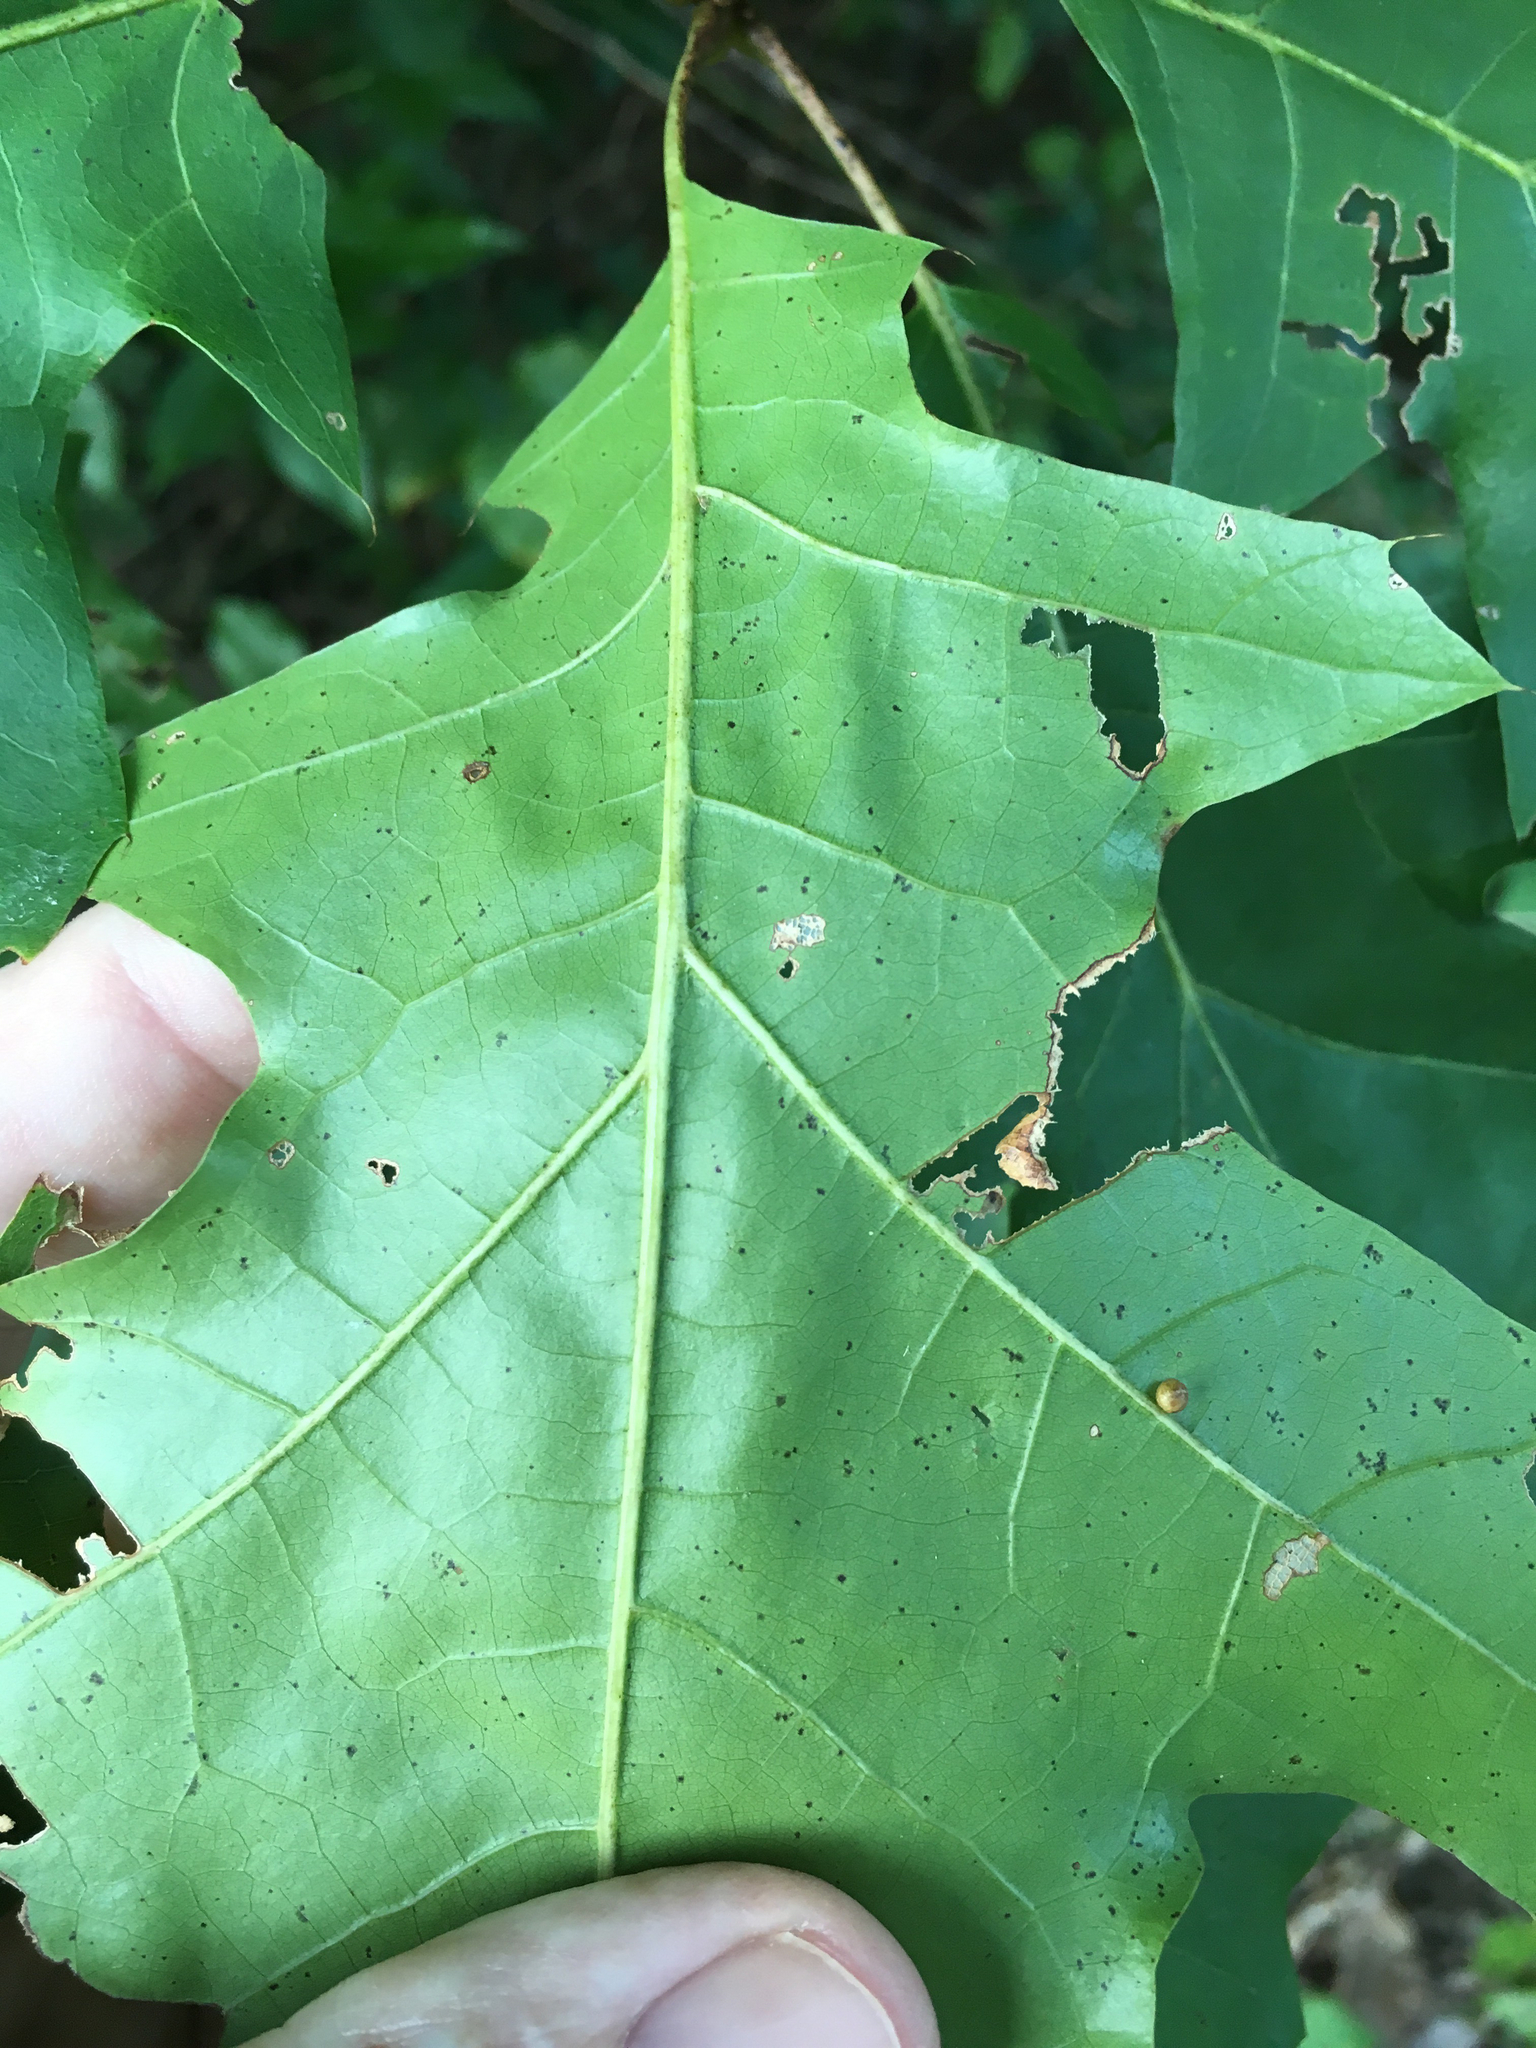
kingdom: Plantae
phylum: Tracheophyta
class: Magnoliopsida
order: Fagales
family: Fagaceae
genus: Quercus
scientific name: Quercus rubra
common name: Red oak
